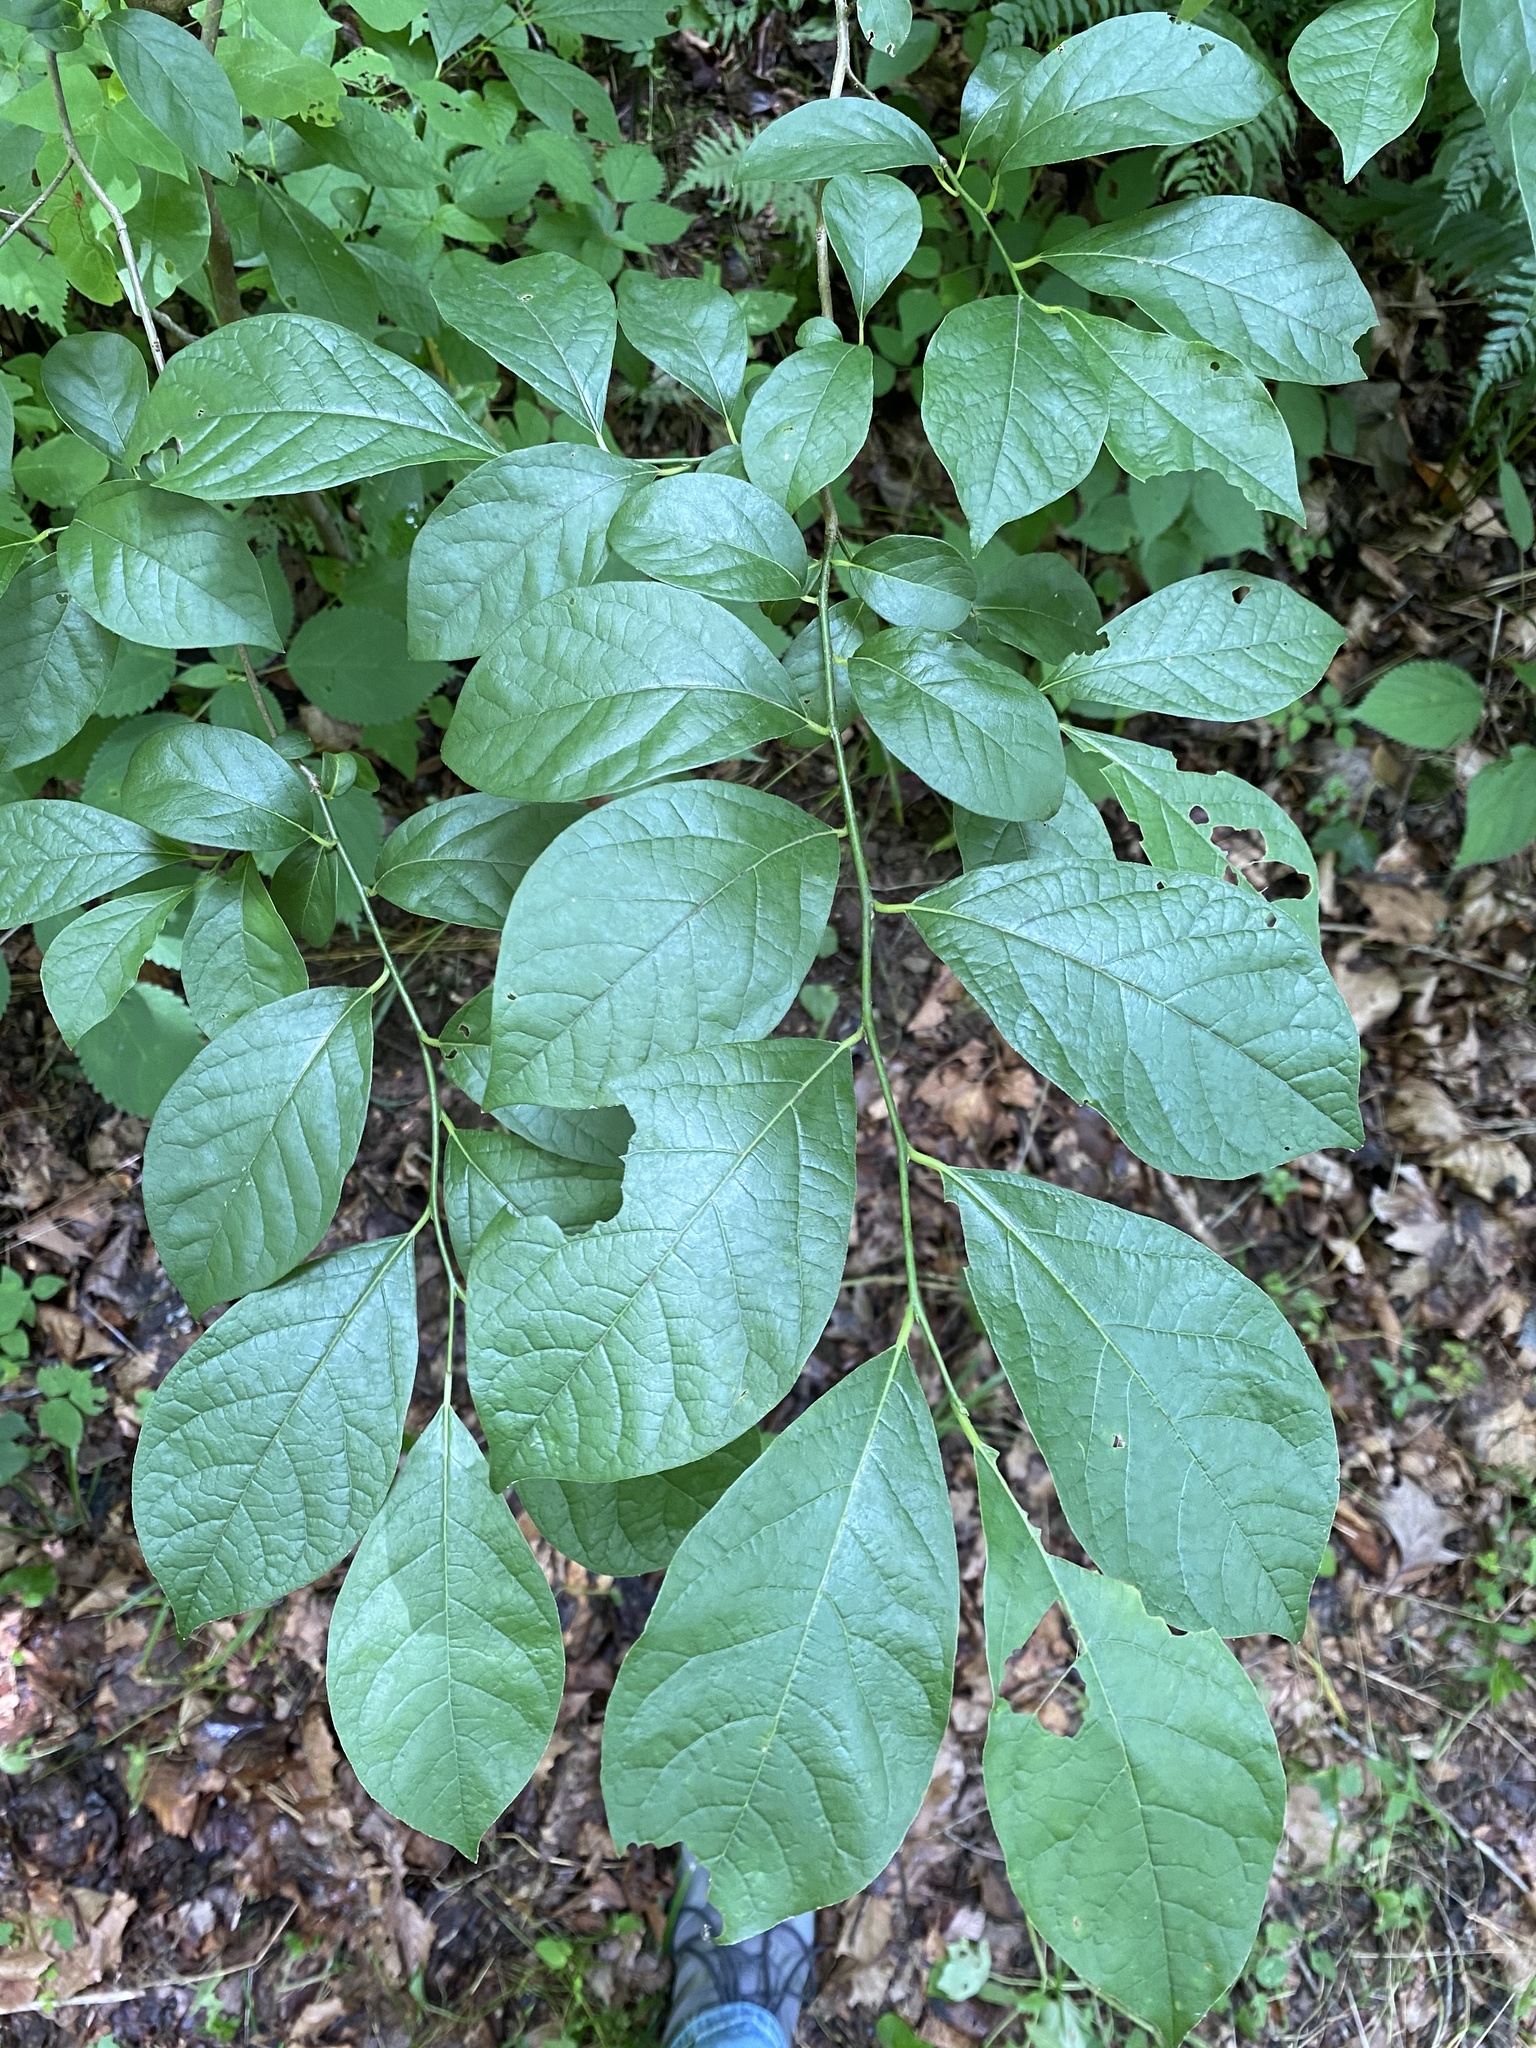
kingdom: Plantae
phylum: Tracheophyta
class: Magnoliopsida
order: Laurales
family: Lauraceae
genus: Lindera
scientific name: Lindera benzoin
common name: Spicebush
